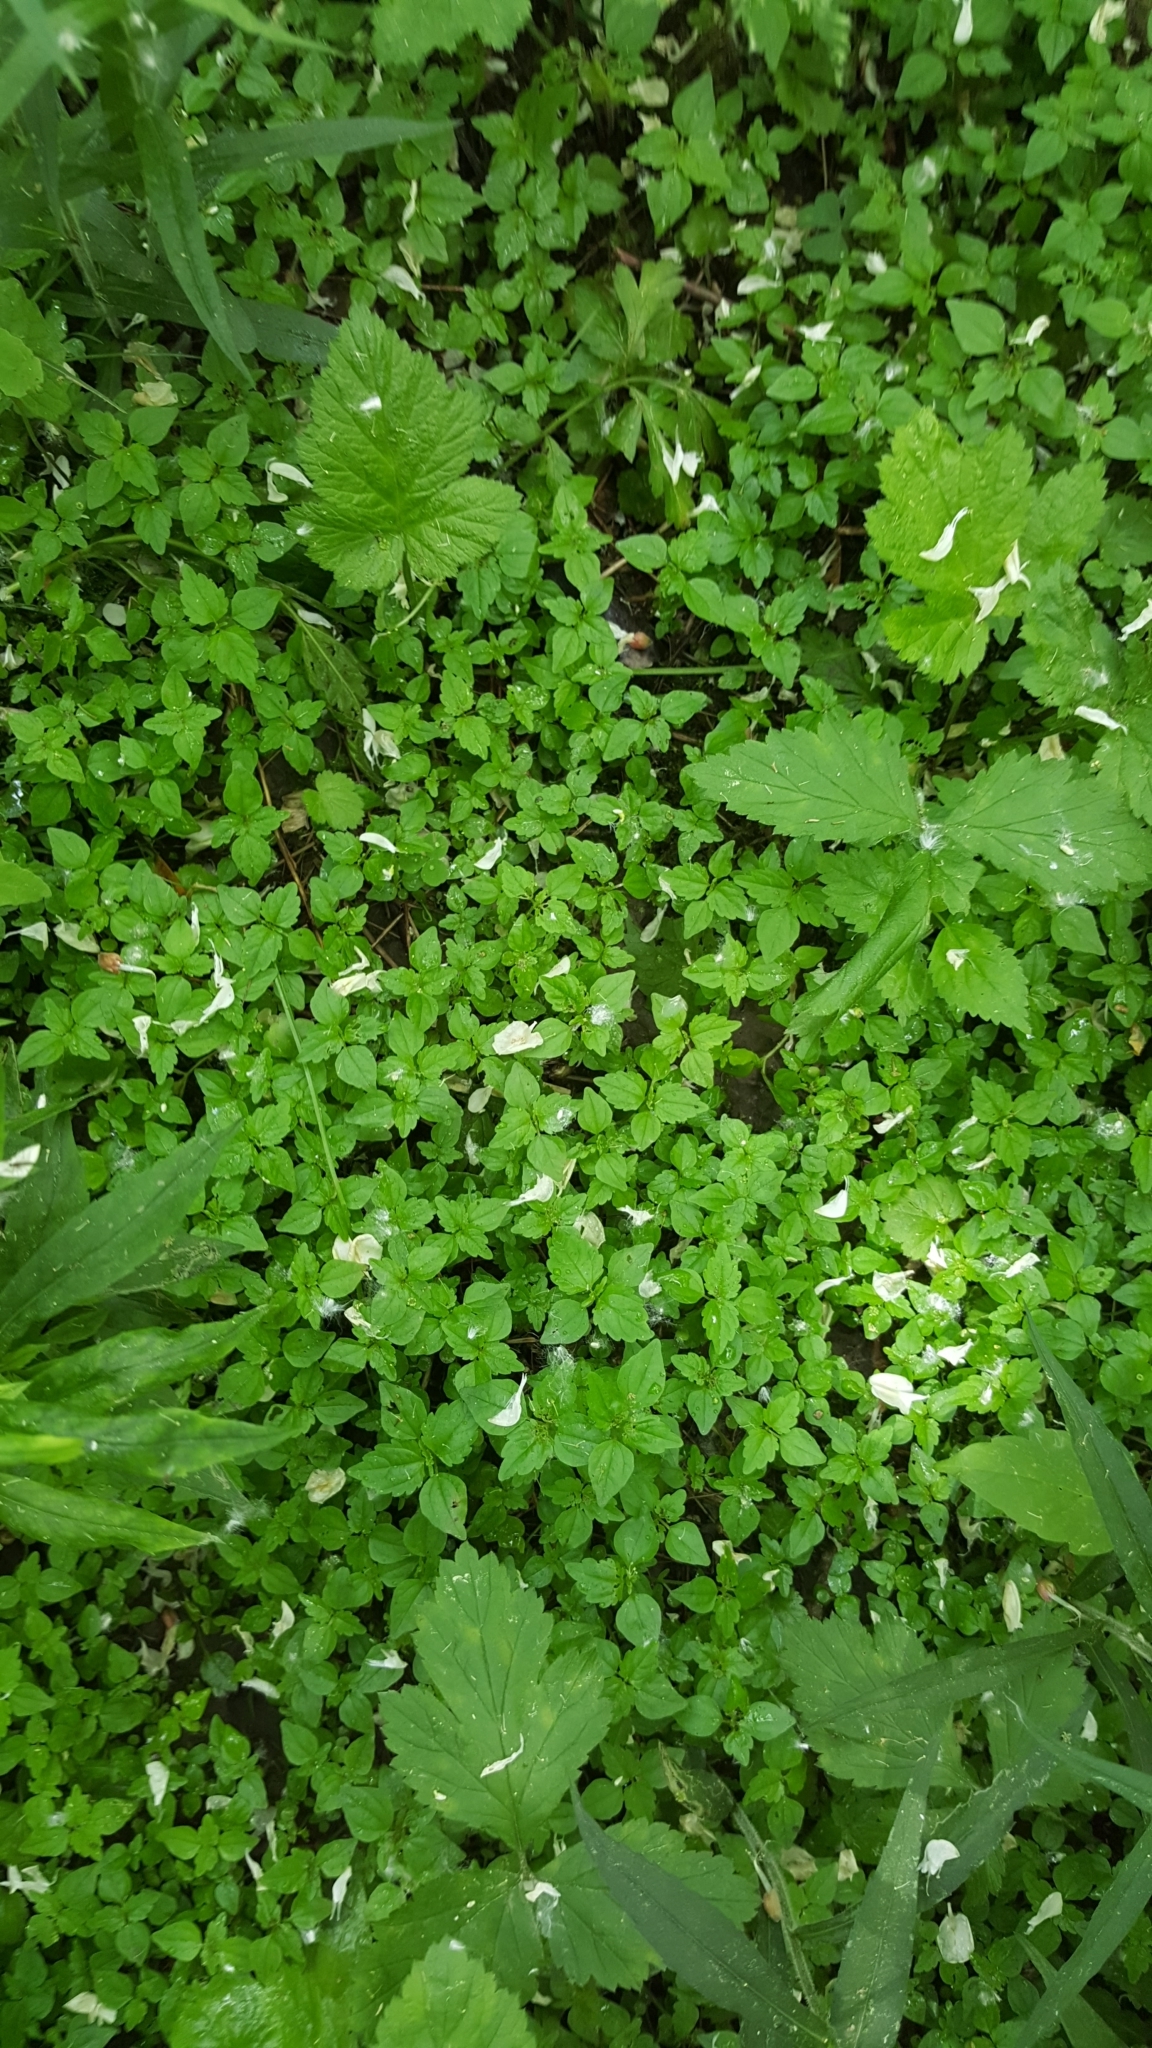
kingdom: Plantae
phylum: Tracheophyta
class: Magnoliopsida
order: Rosales
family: Urticaceae
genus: Pilea
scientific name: Pilea pumila
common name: Clearweed
